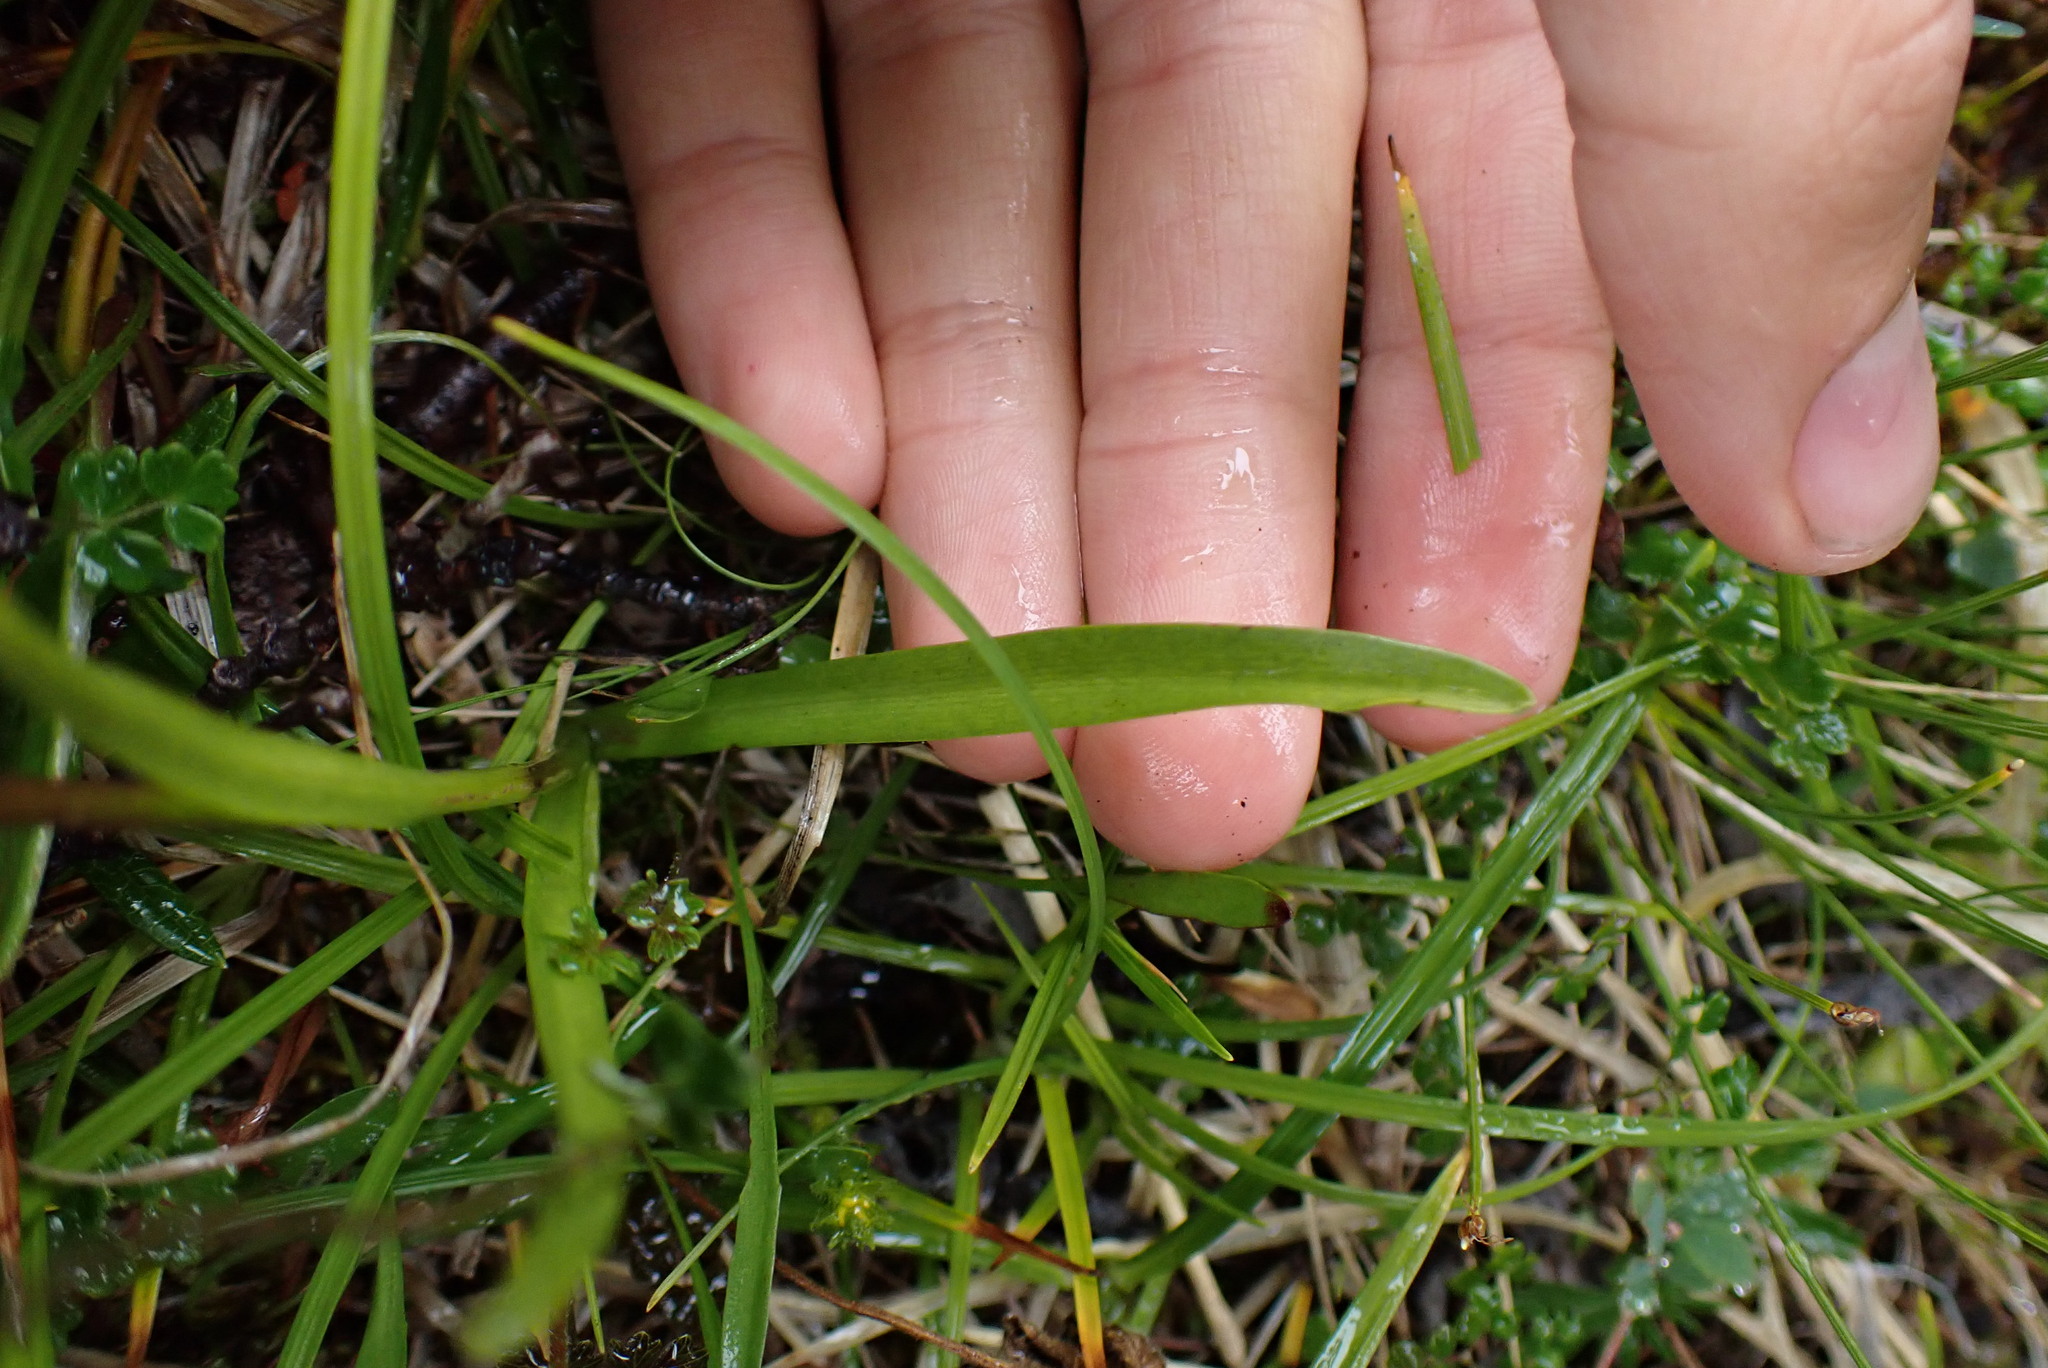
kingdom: Plantae
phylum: Tracheophyta
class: Liliopsida
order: Asparagales
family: Orchidaceae
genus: Gymnadenia
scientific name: Gymnadenia conopsea
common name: Fragrant orchid
